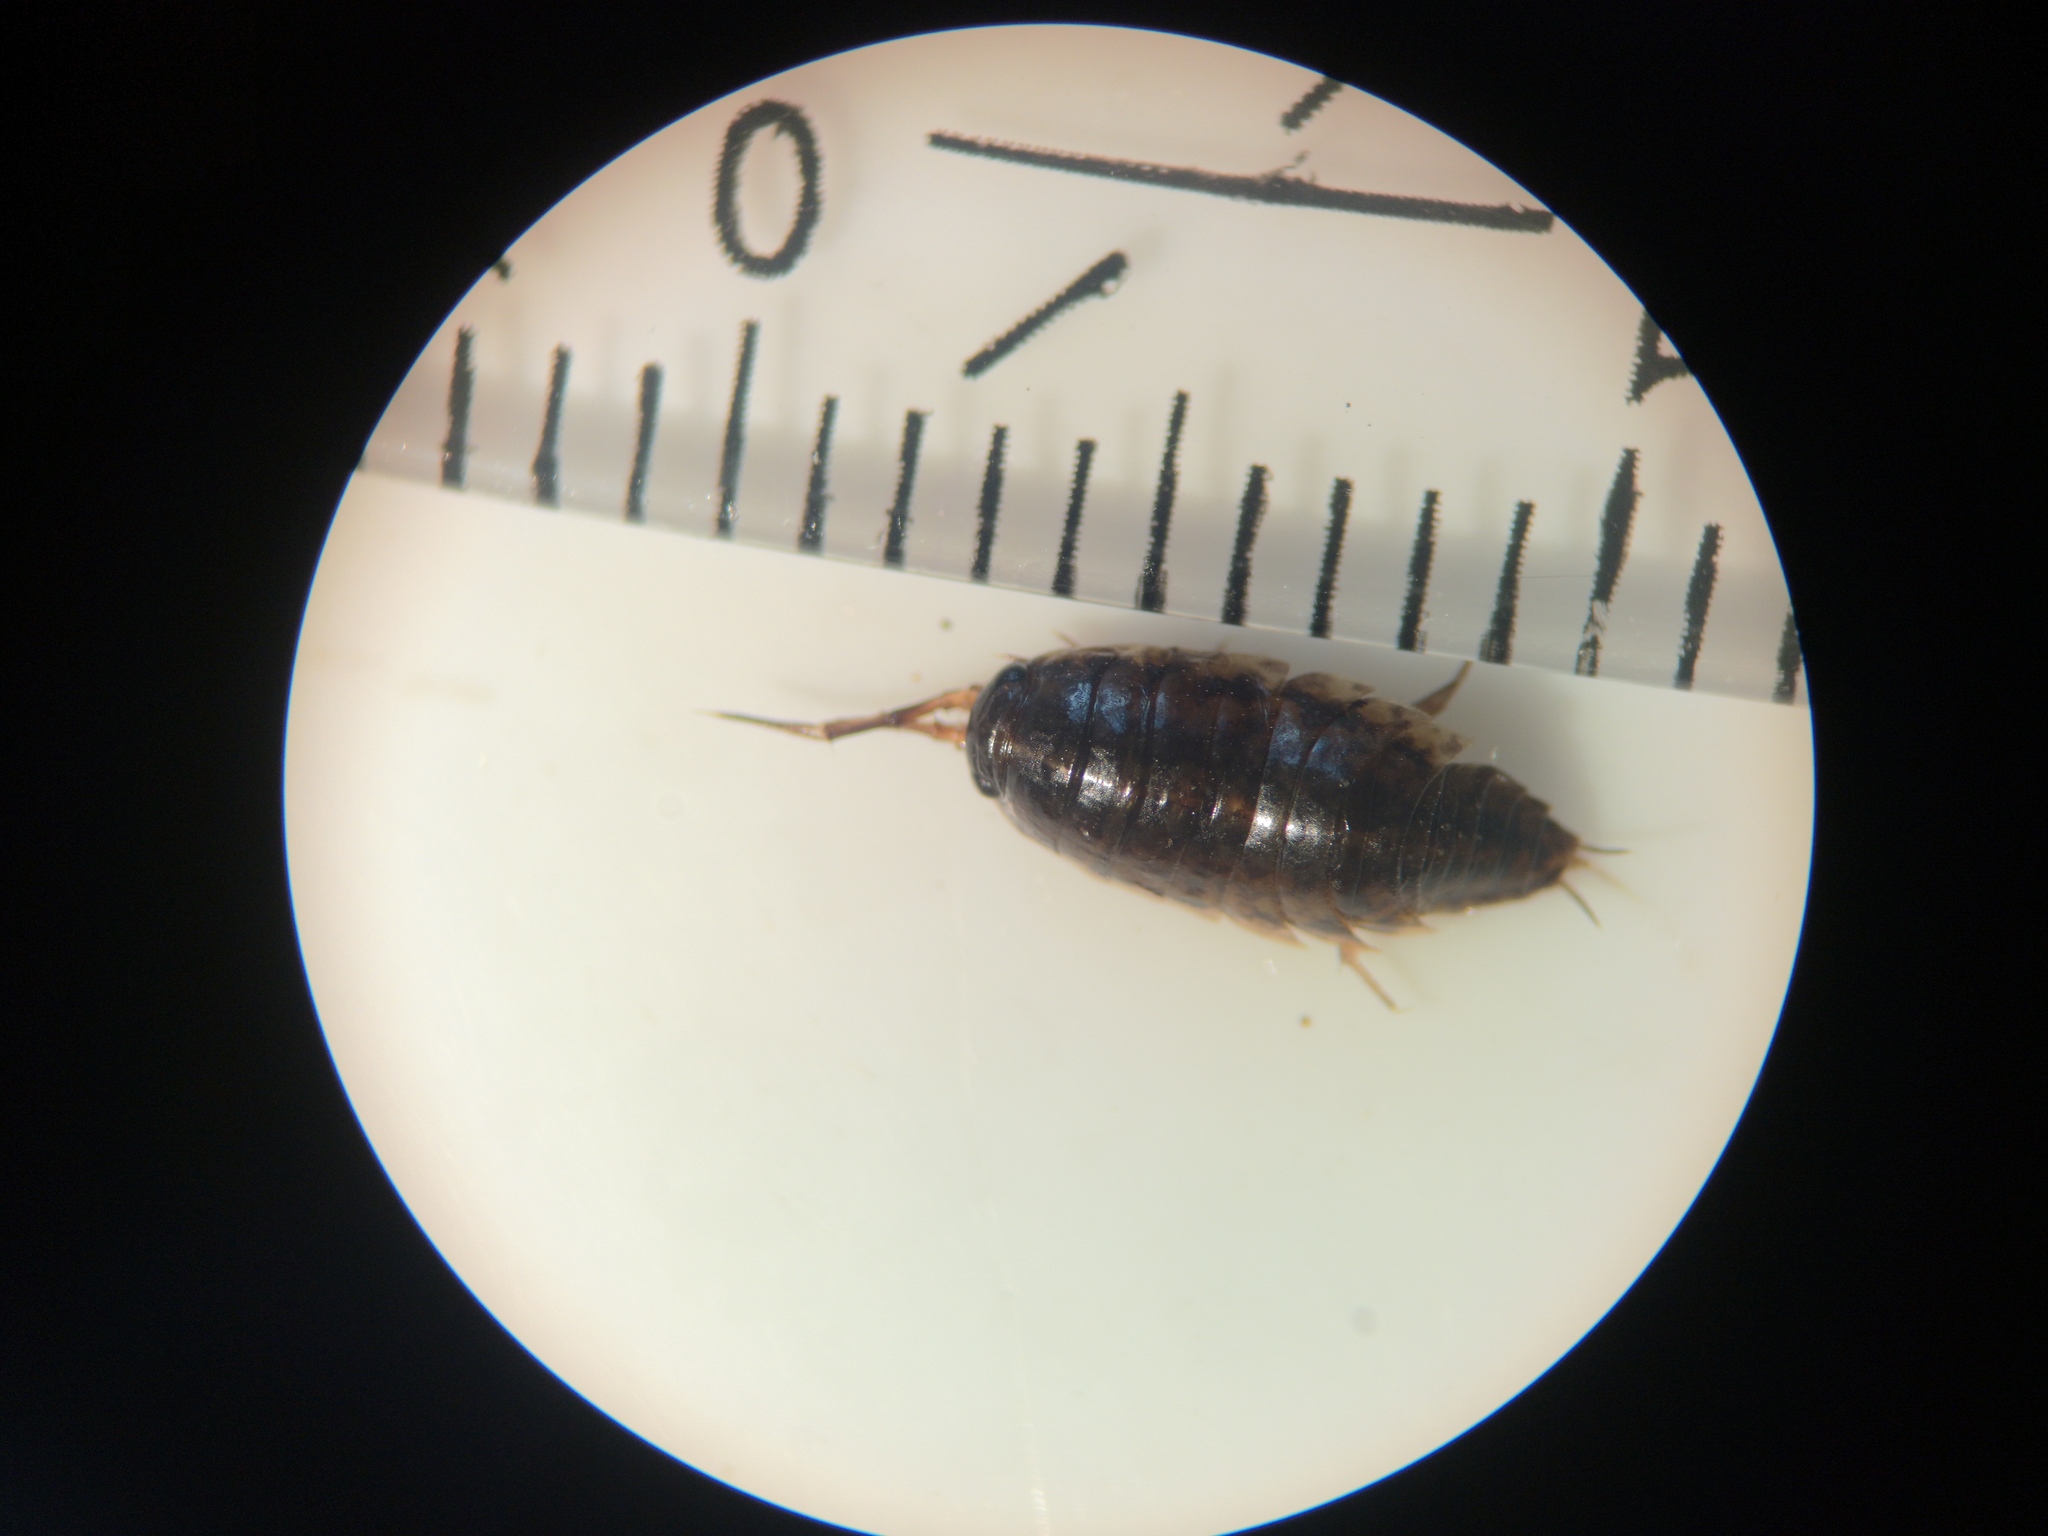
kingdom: Animalia
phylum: Arthropoda
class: Malacostraca
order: Isopoda
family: Ligiidae
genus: Ligidium
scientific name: Ligidium hypnorum
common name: Moss slater
